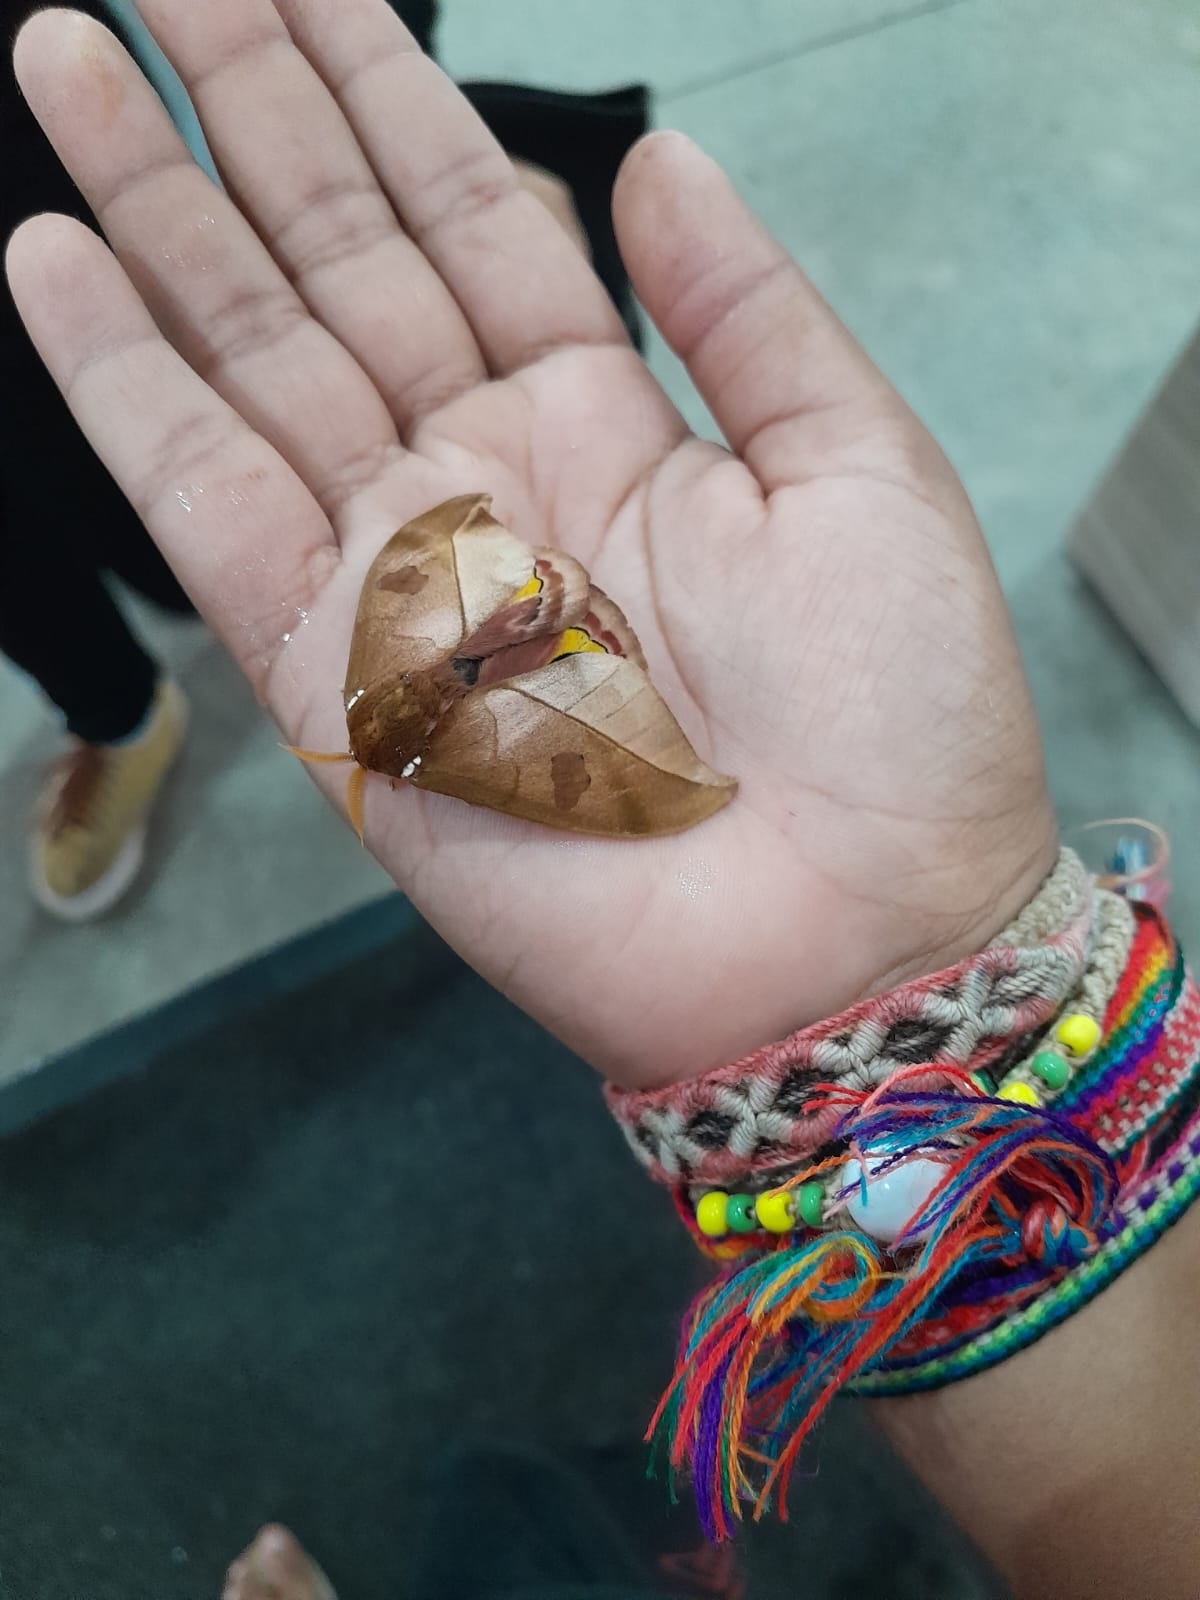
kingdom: Animalia
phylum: Arthropoda
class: Insecta
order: Lepidoptera
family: Saturniidae
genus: Automeris
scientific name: Automeris melanops
